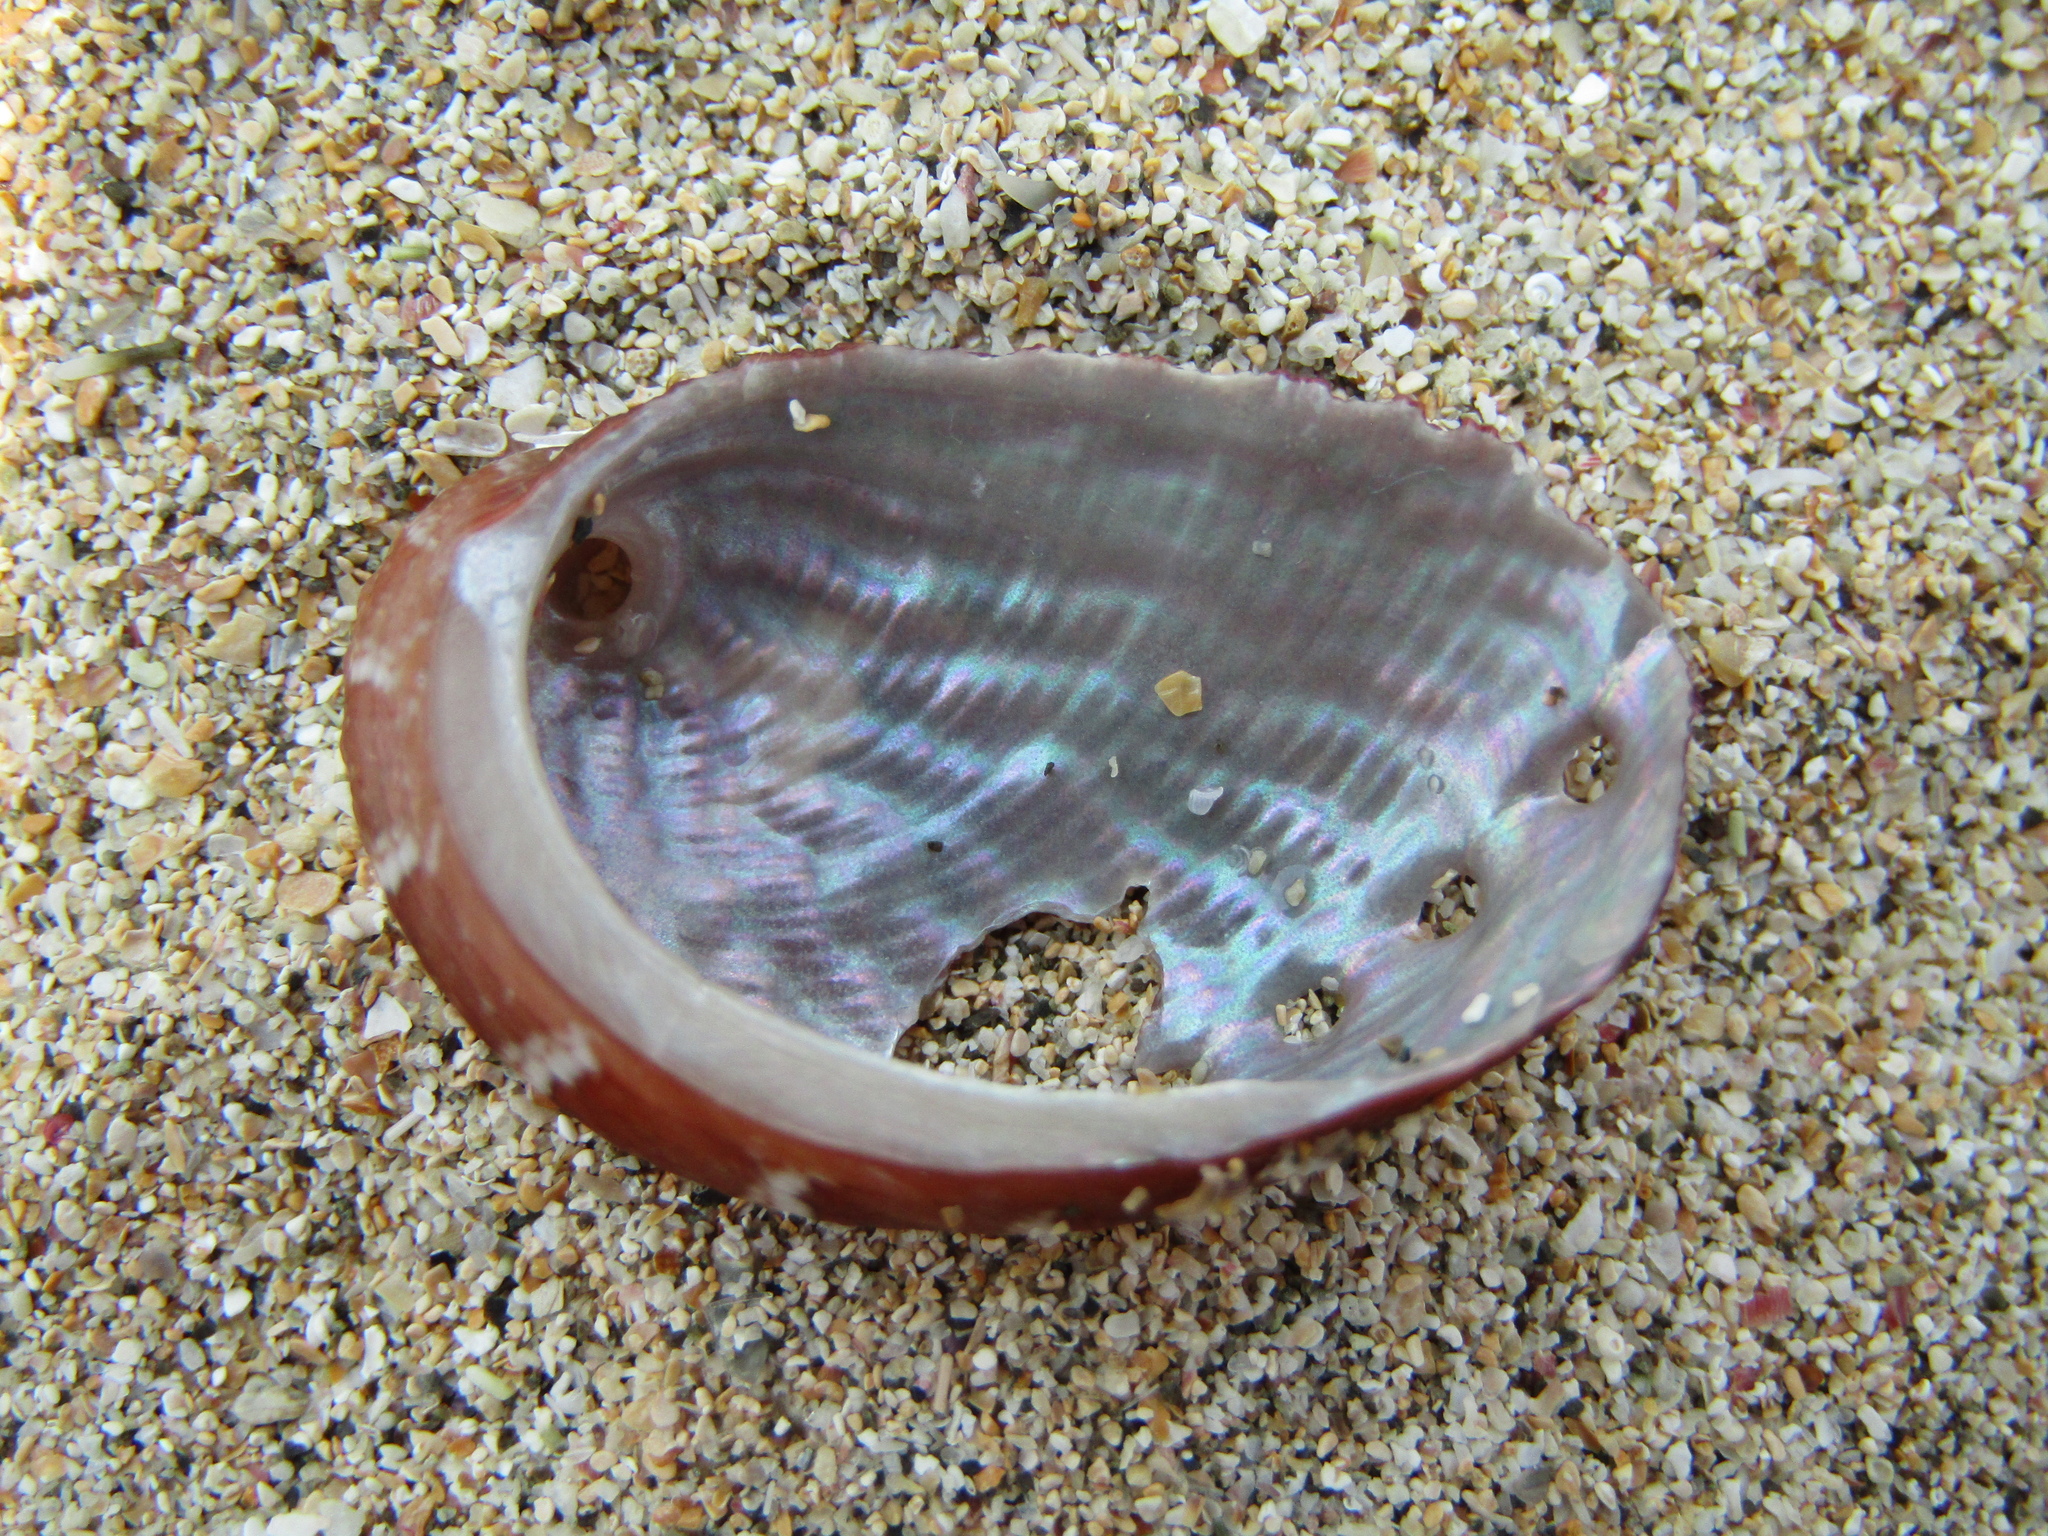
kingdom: Animalia
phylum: Mollusca
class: Gastropoda
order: Lepetellida
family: Haliotidae
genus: Haliotis
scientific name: Haliotis virginea
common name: Whitefoot paua
